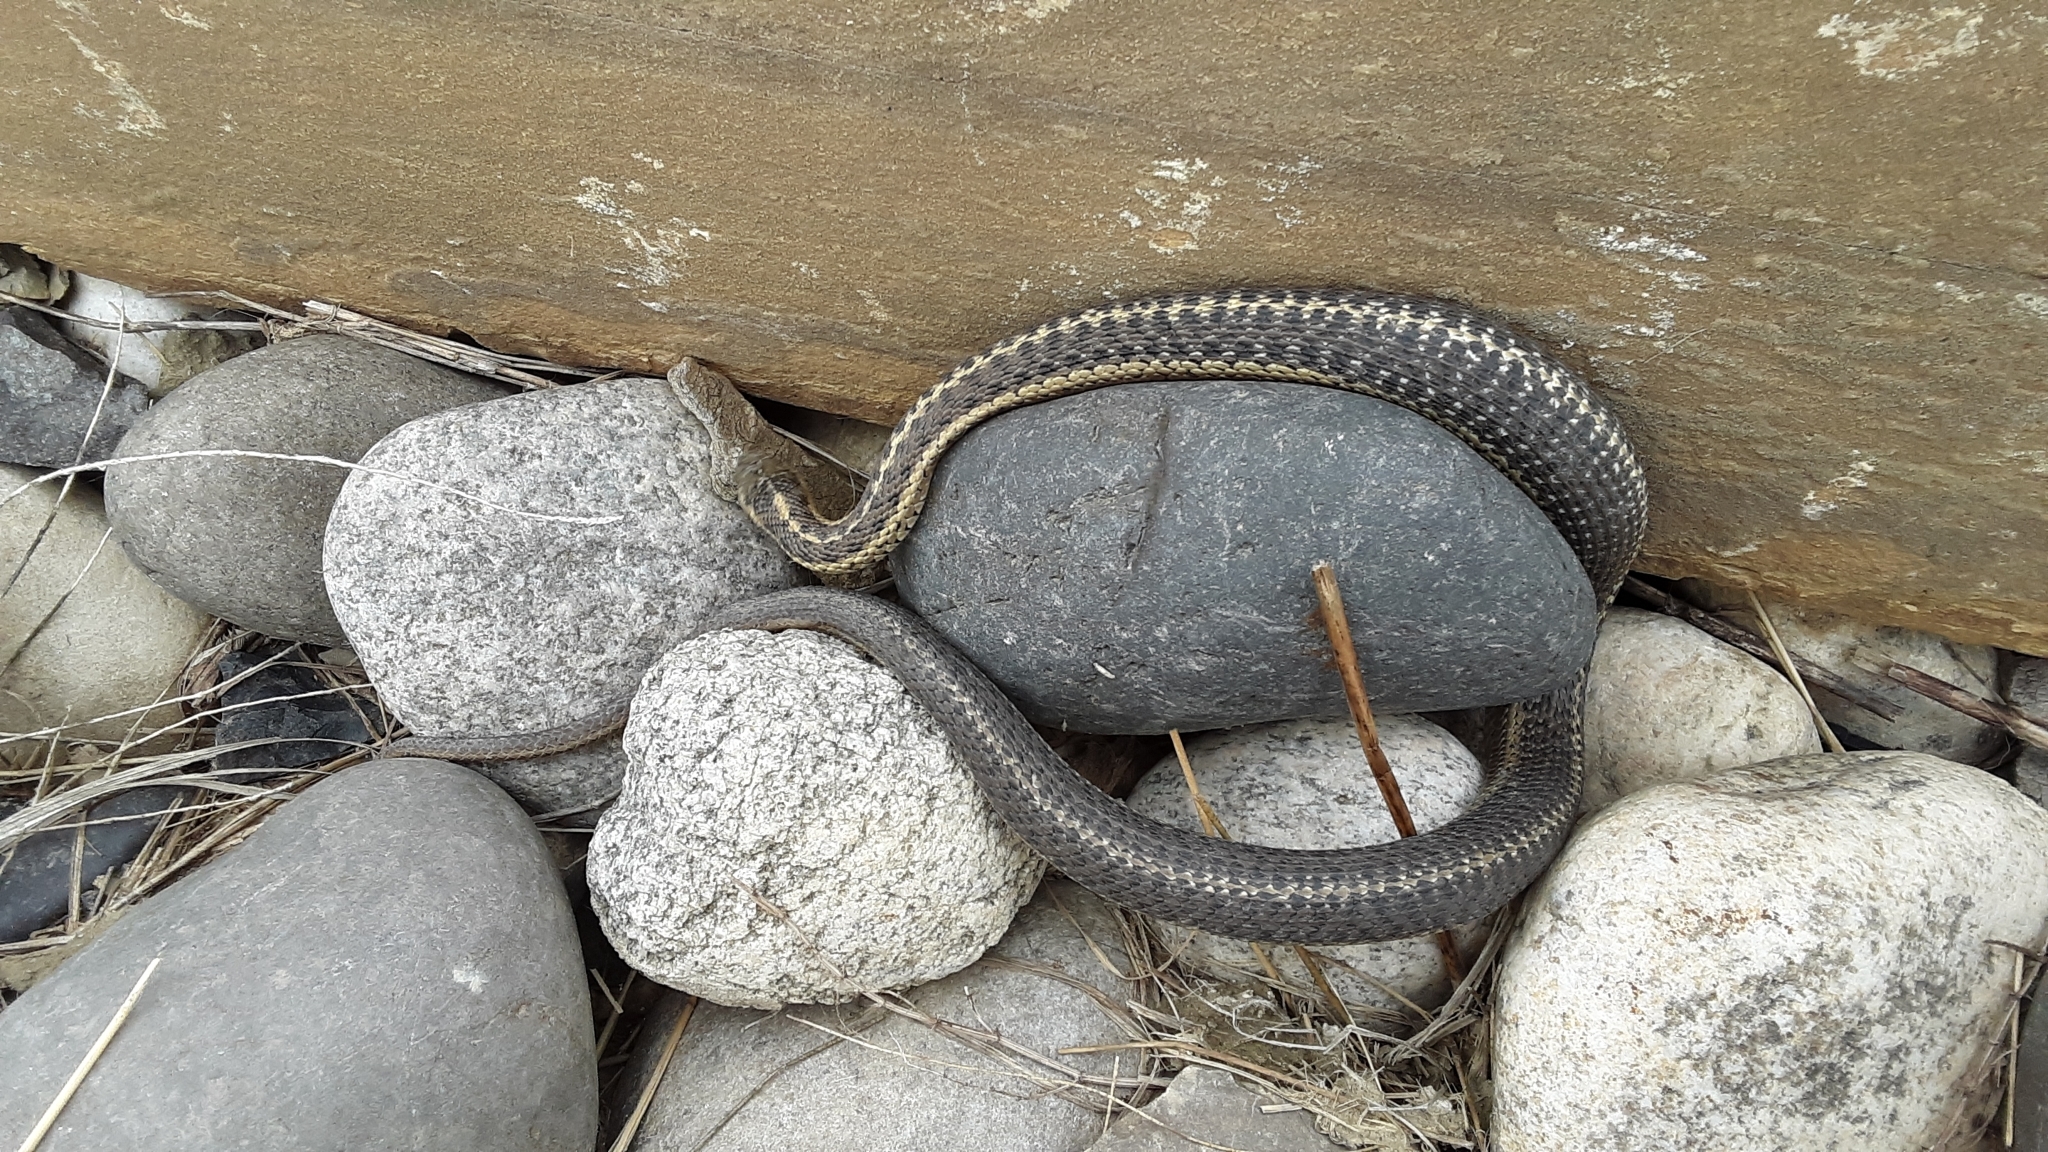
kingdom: Animalia
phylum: Chordata
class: Squamata
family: Colubridae
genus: Thamnophis
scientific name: Thamnophis elegans
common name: Western terrestrial garter snake
